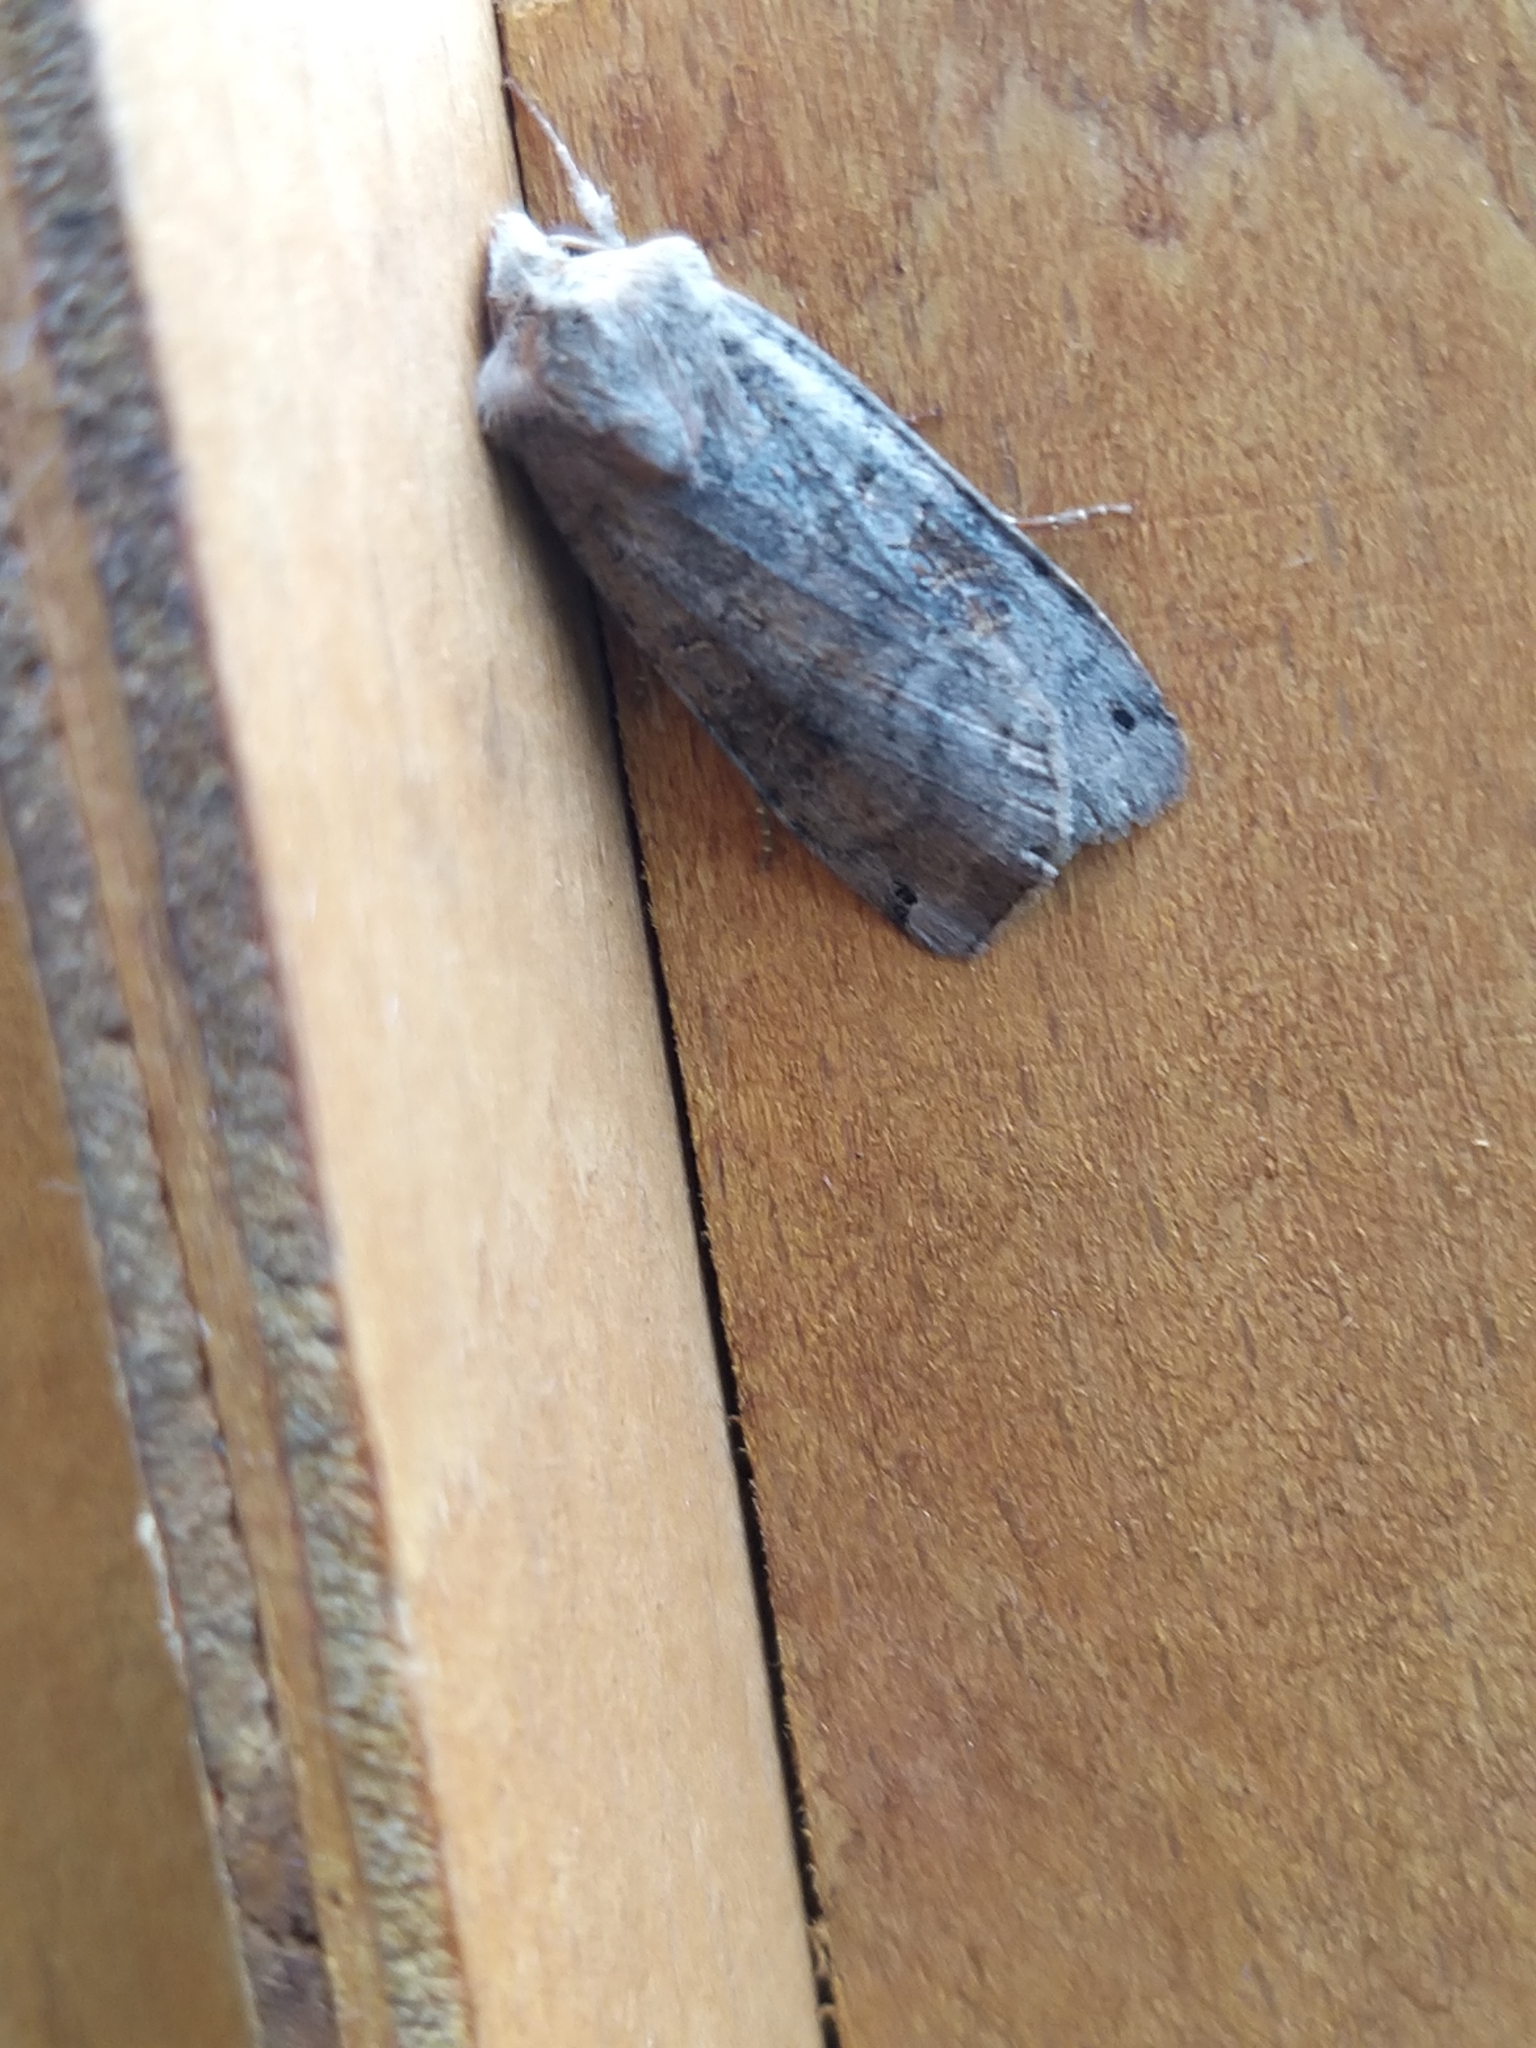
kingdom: Animalia
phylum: Arthropoda
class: Insecta
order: Lepidoptera
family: Noctuidae
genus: Xestia
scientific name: Xestia baja
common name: Dotted clay
